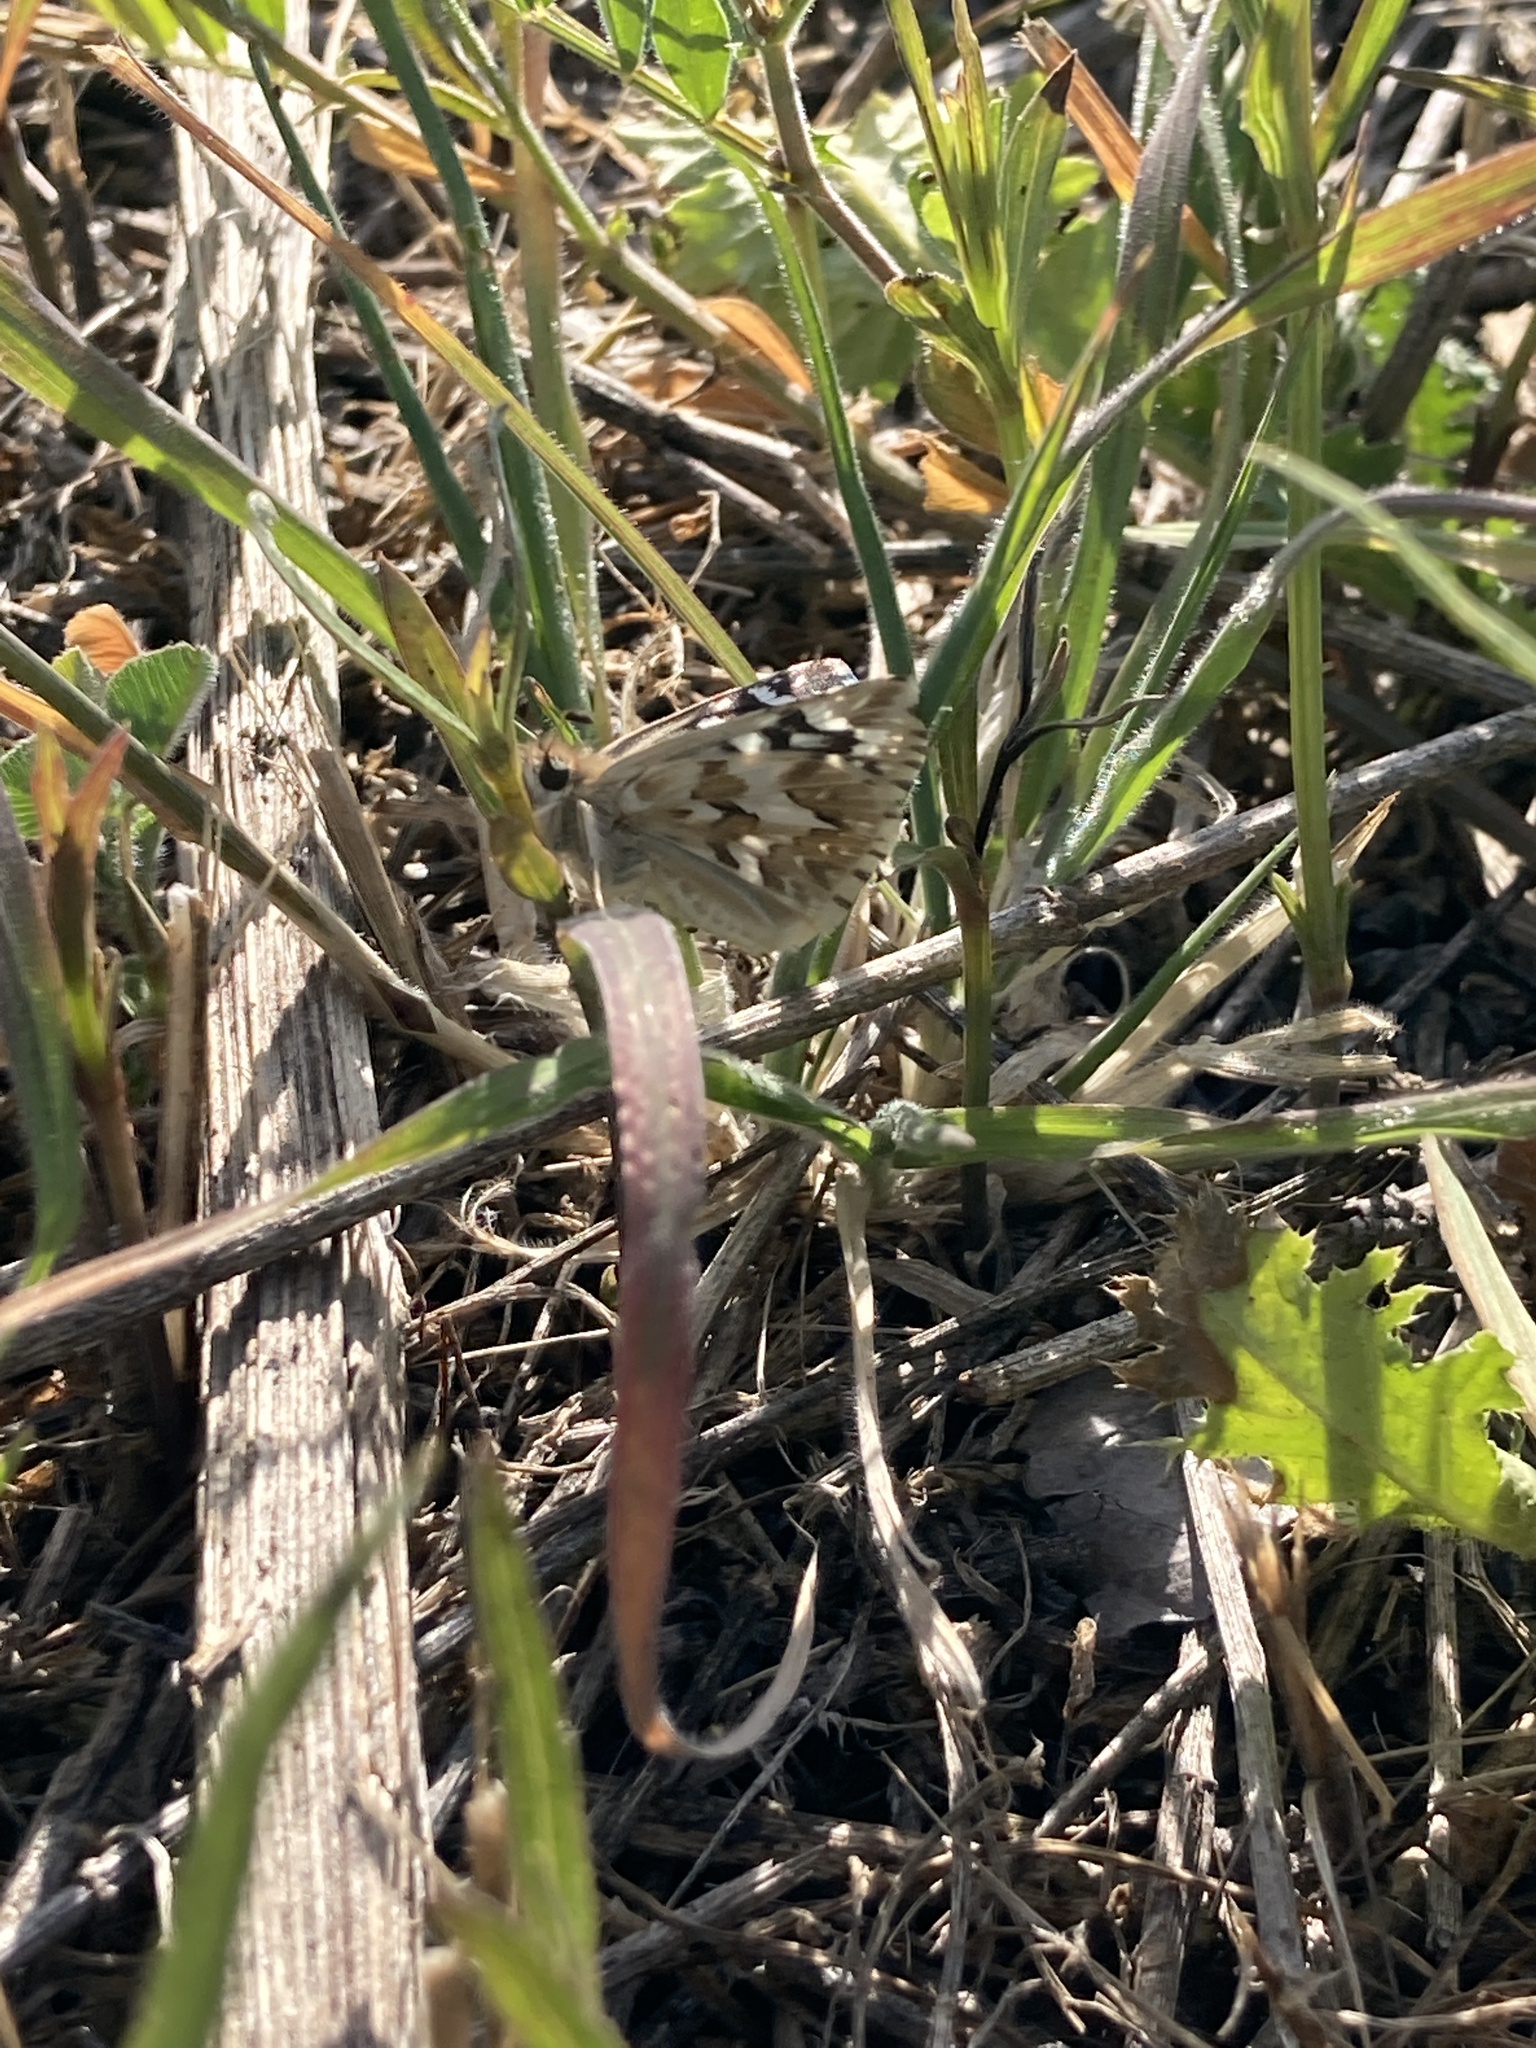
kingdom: Animalia
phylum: Arthropoda
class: Insecta
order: Lepidoptera
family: Hesperiidae
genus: Heliopetes
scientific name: Heliopetes americanus
